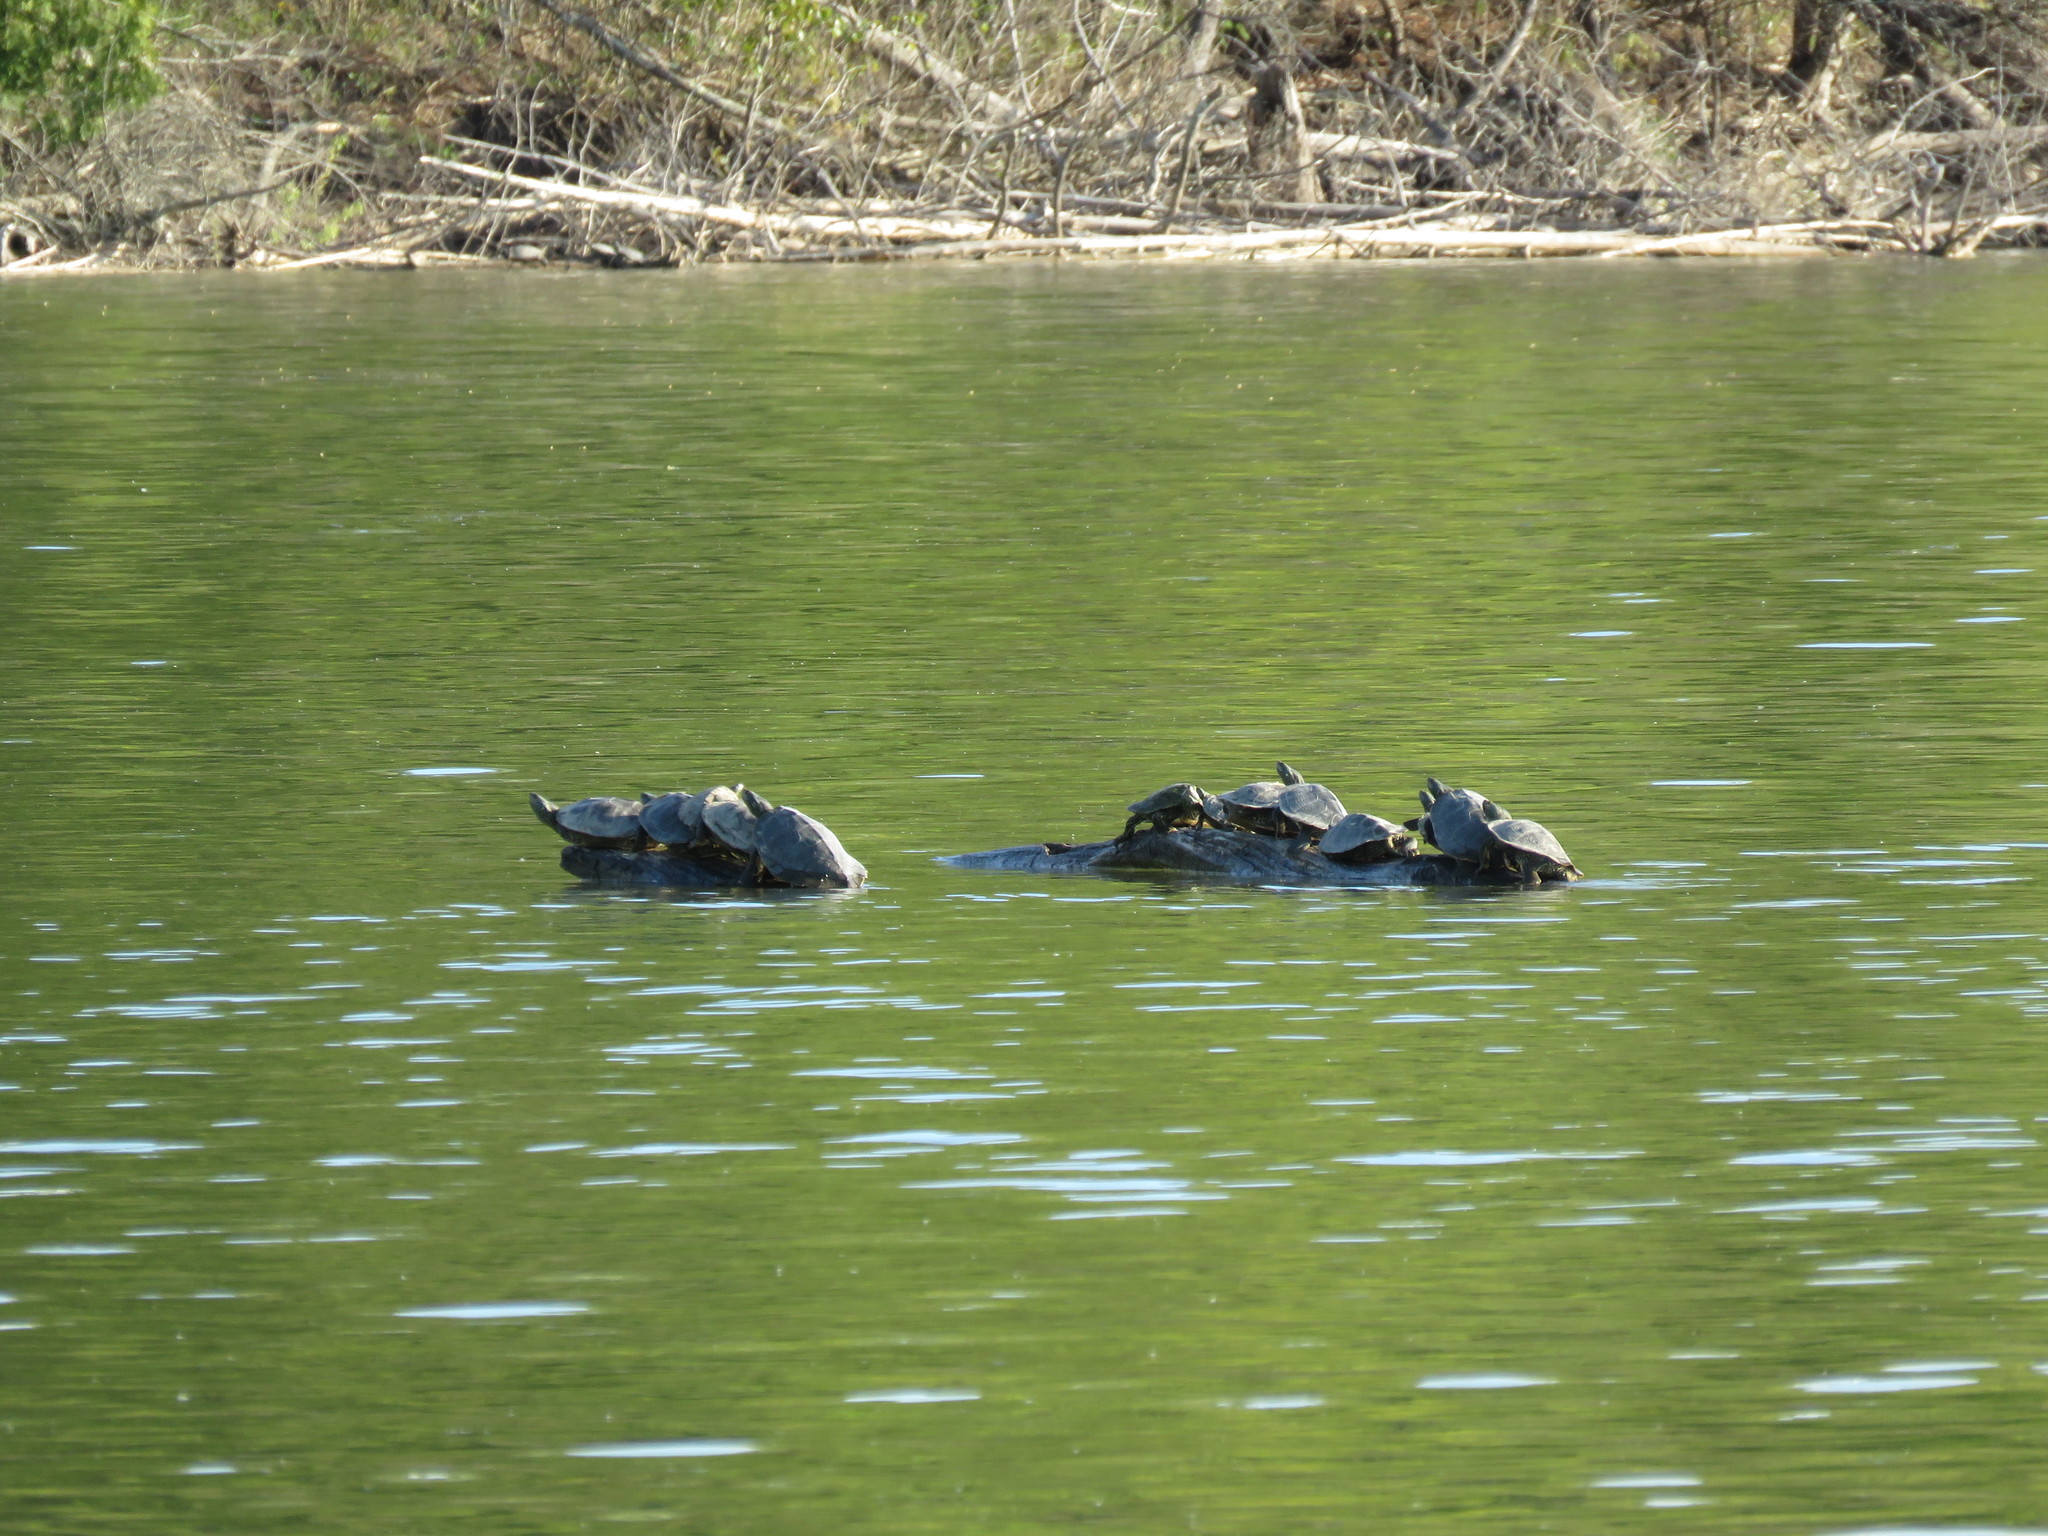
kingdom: Animalia
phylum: Chordata
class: Testudines
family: Emydidae
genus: Graptemys
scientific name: Graptemys geographica
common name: Common map turtle
